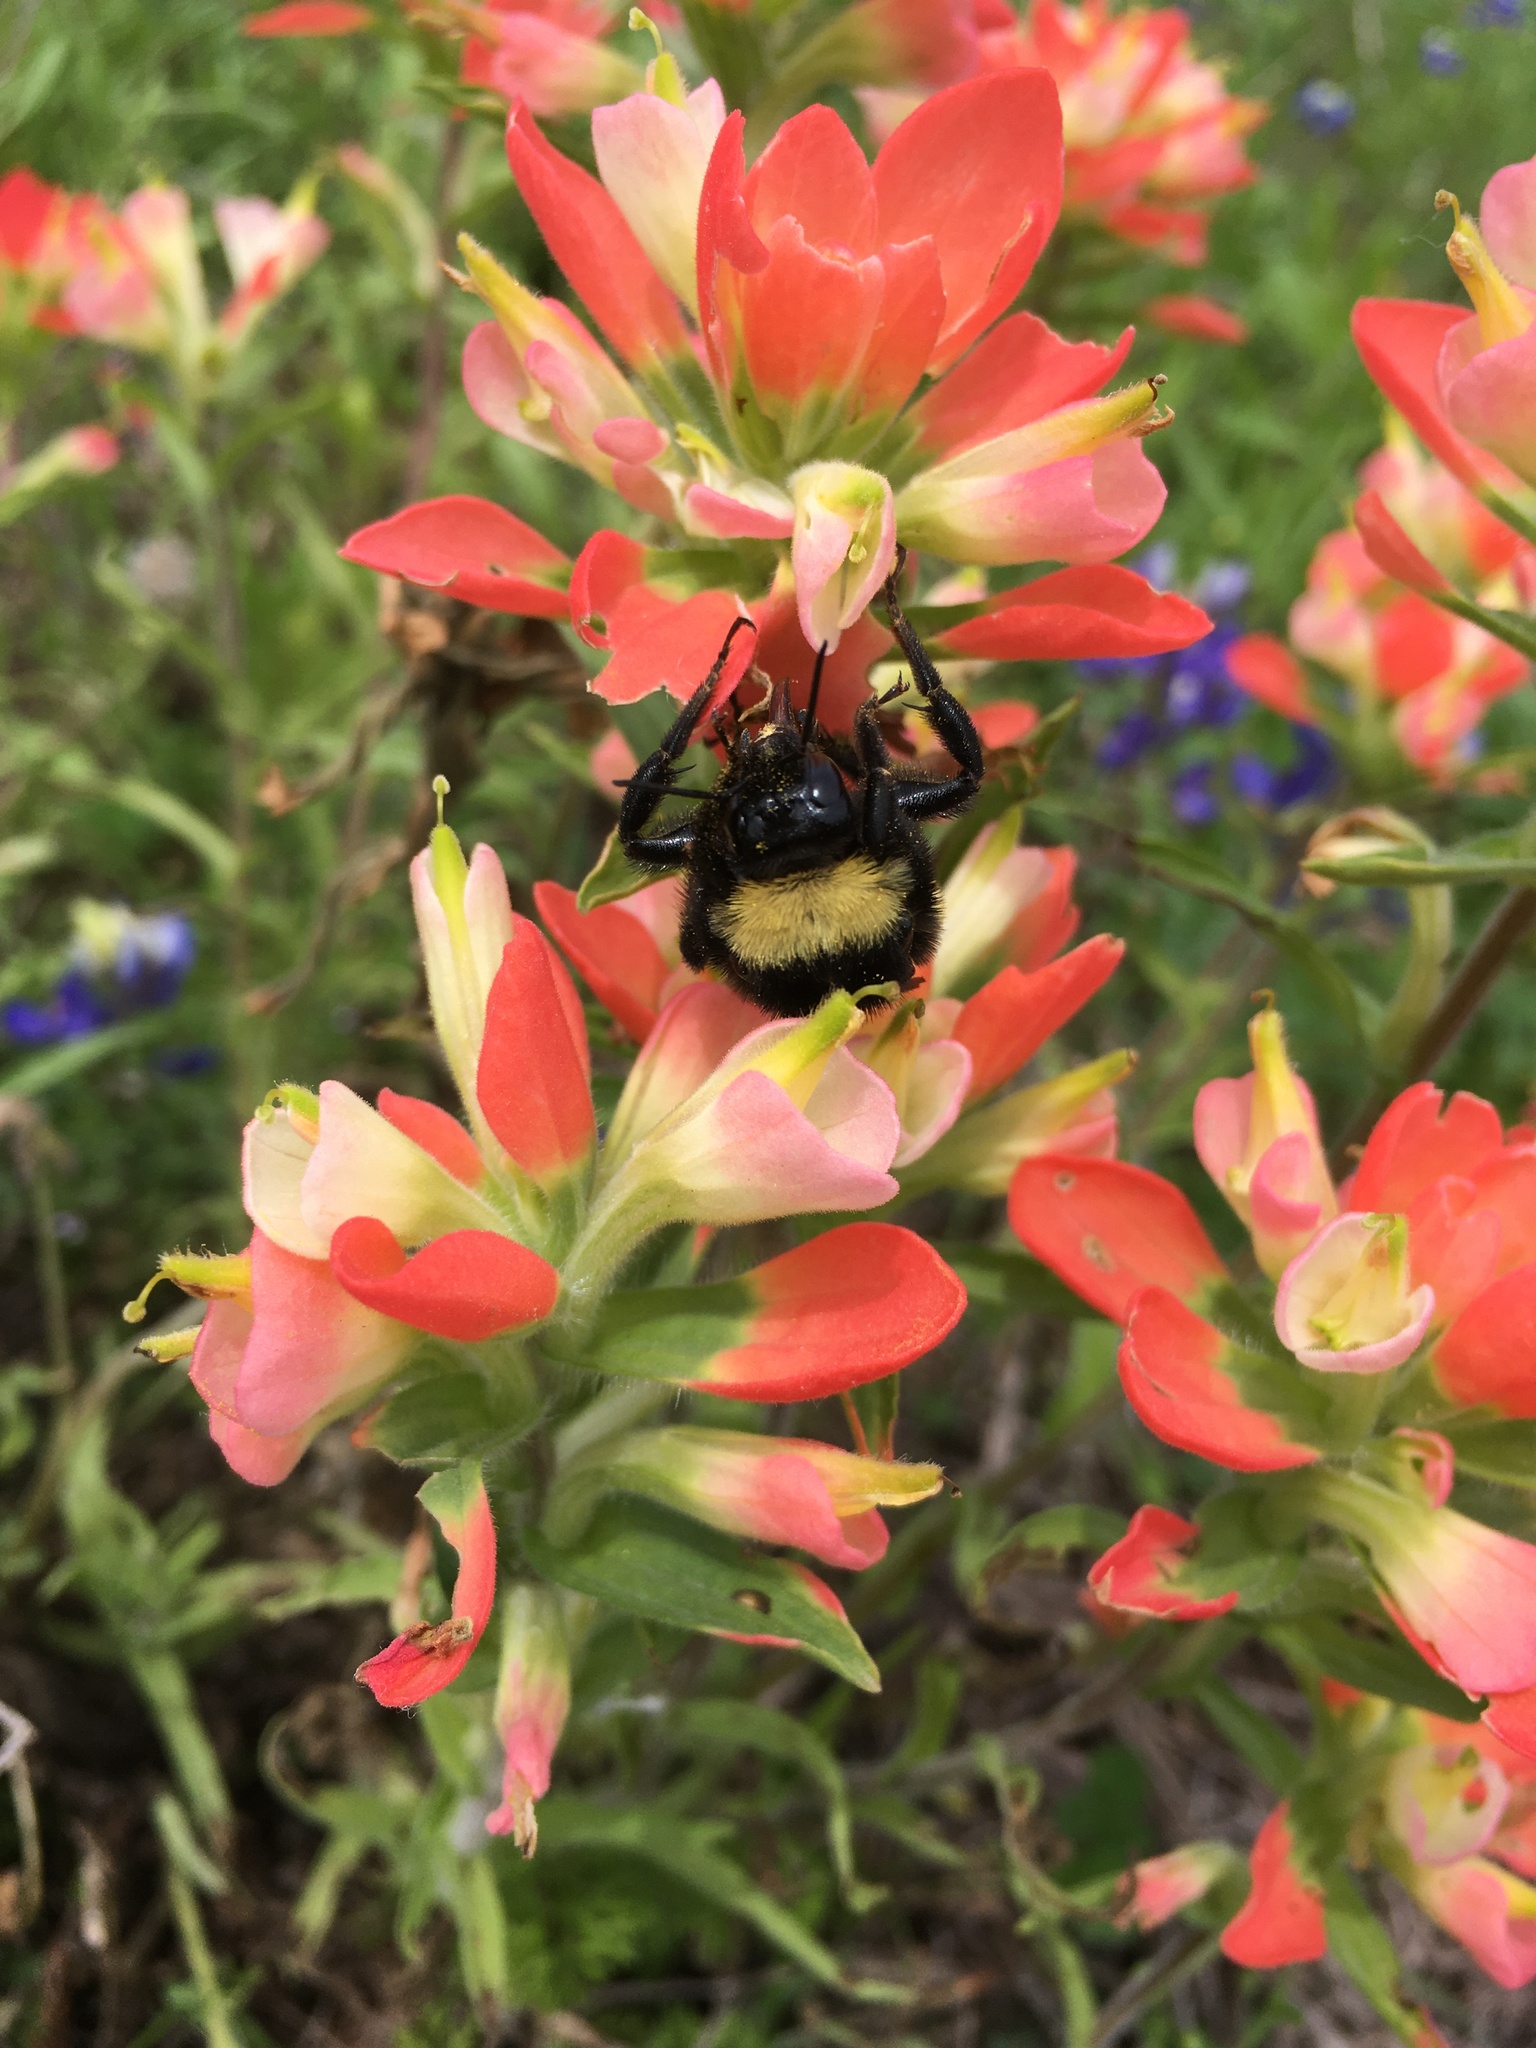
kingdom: Animalia
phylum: Arthropoda
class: Insecta
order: Hymenoptera
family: Apidae
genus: Bombus
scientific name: Bombus pensylvanicus
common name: Bumble bee
